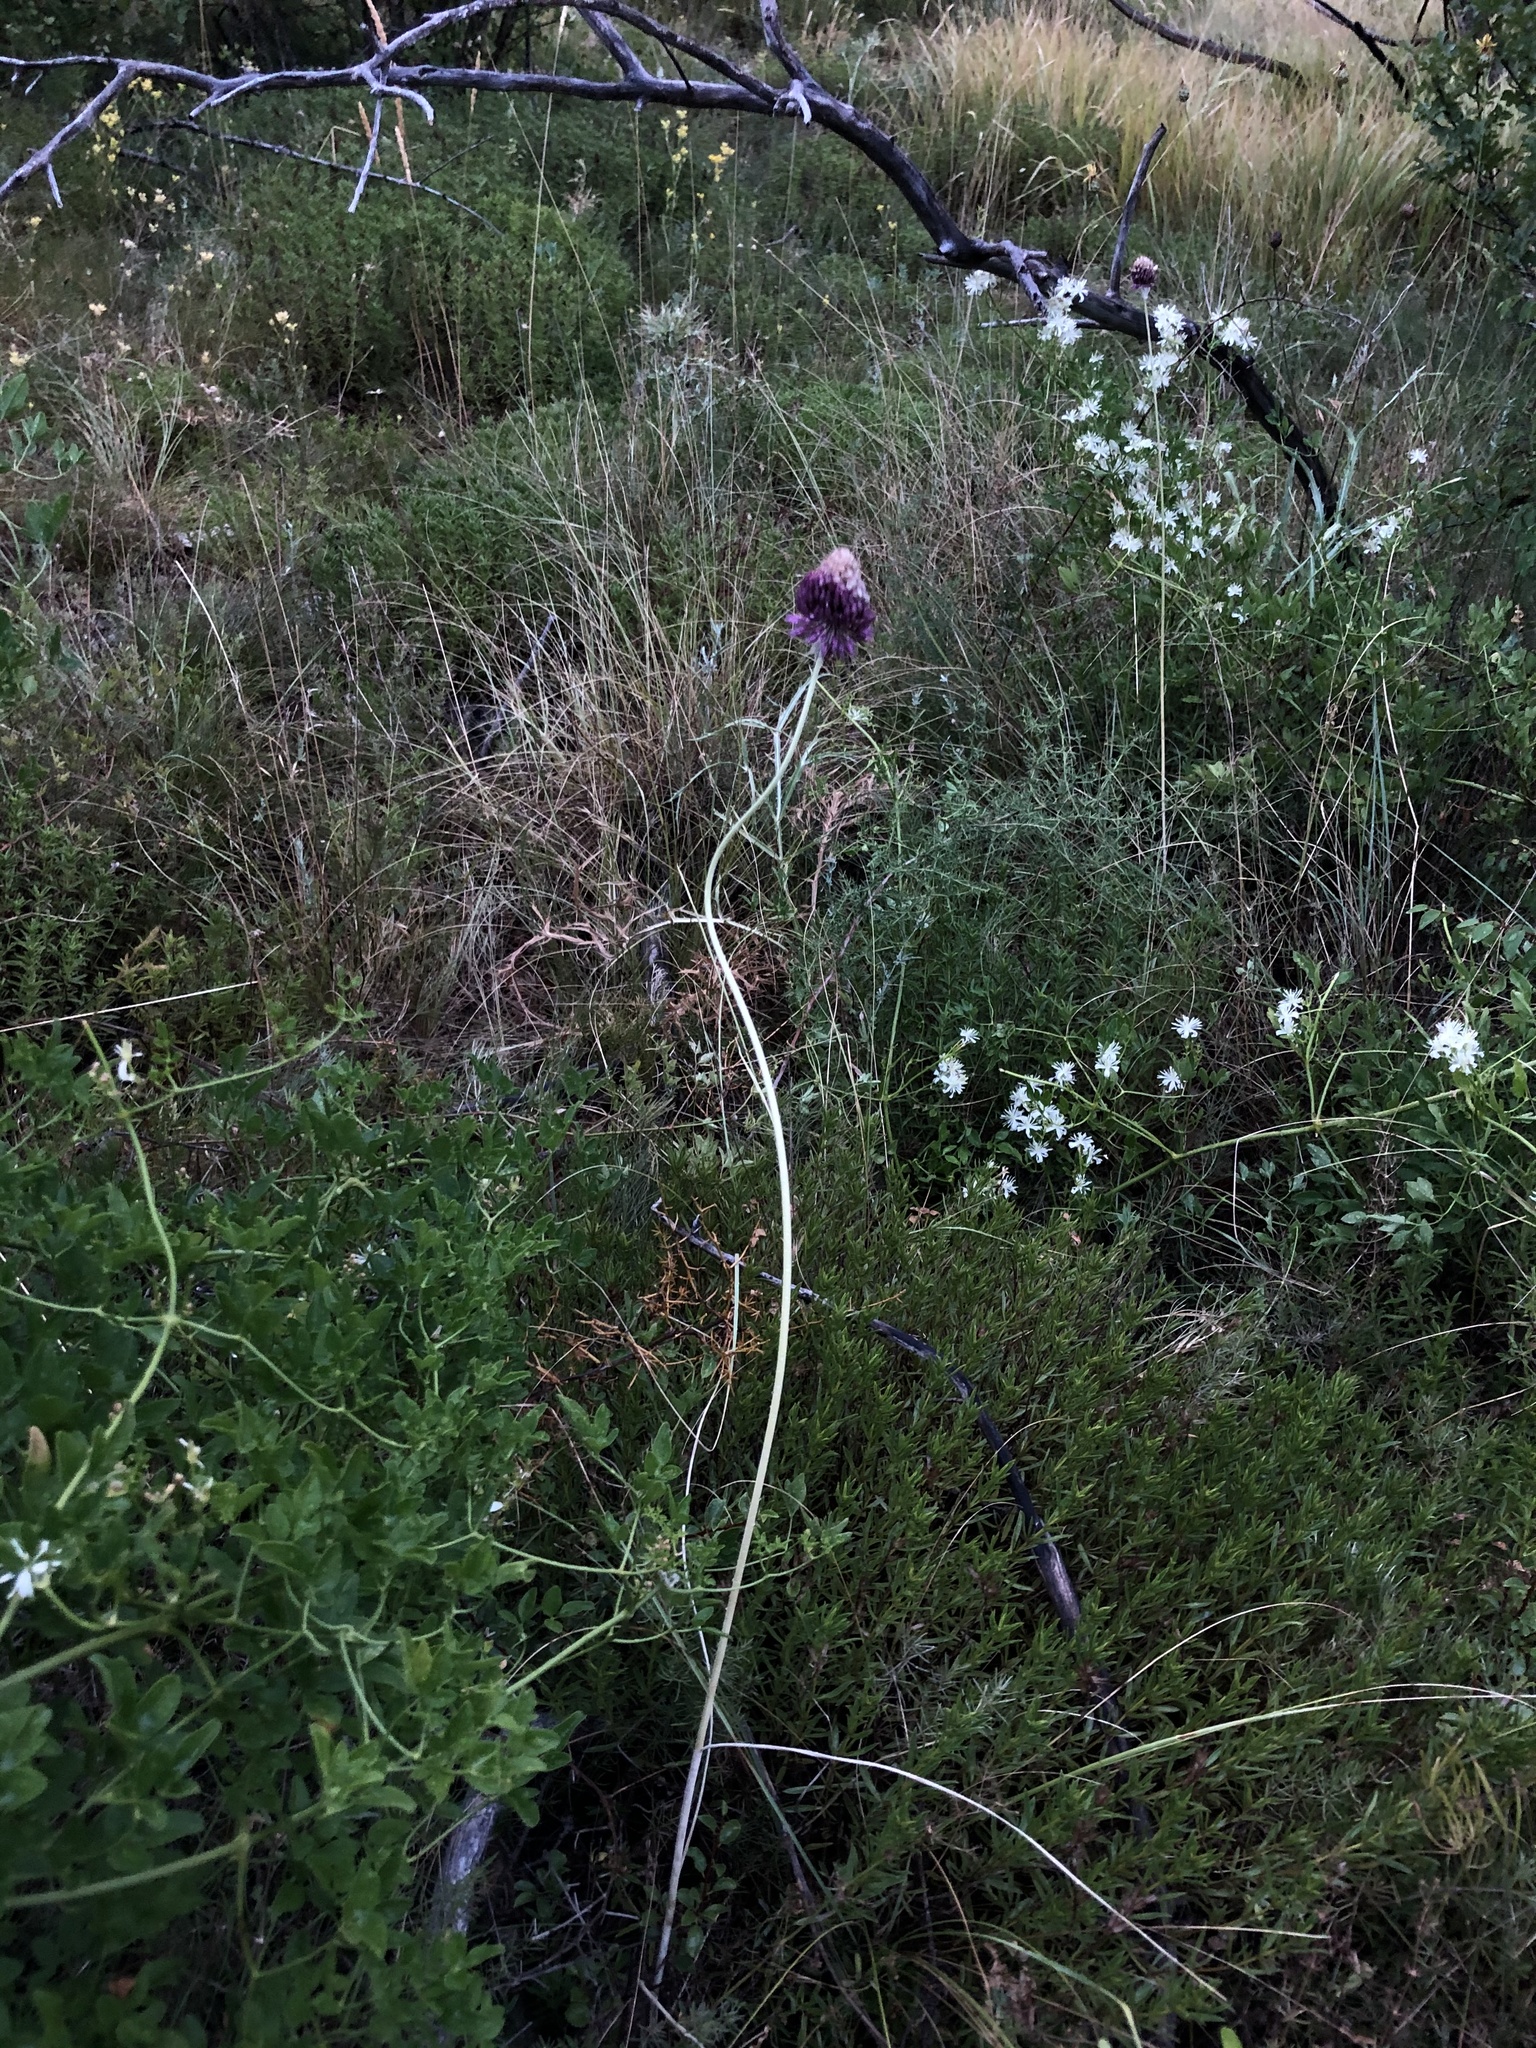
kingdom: Plantae
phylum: Tracheophyta
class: Liliopsida
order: Asparagales
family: Amaryllidaceae
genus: Allium
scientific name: Allium sphaerocephalon
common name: Round-headed leek
